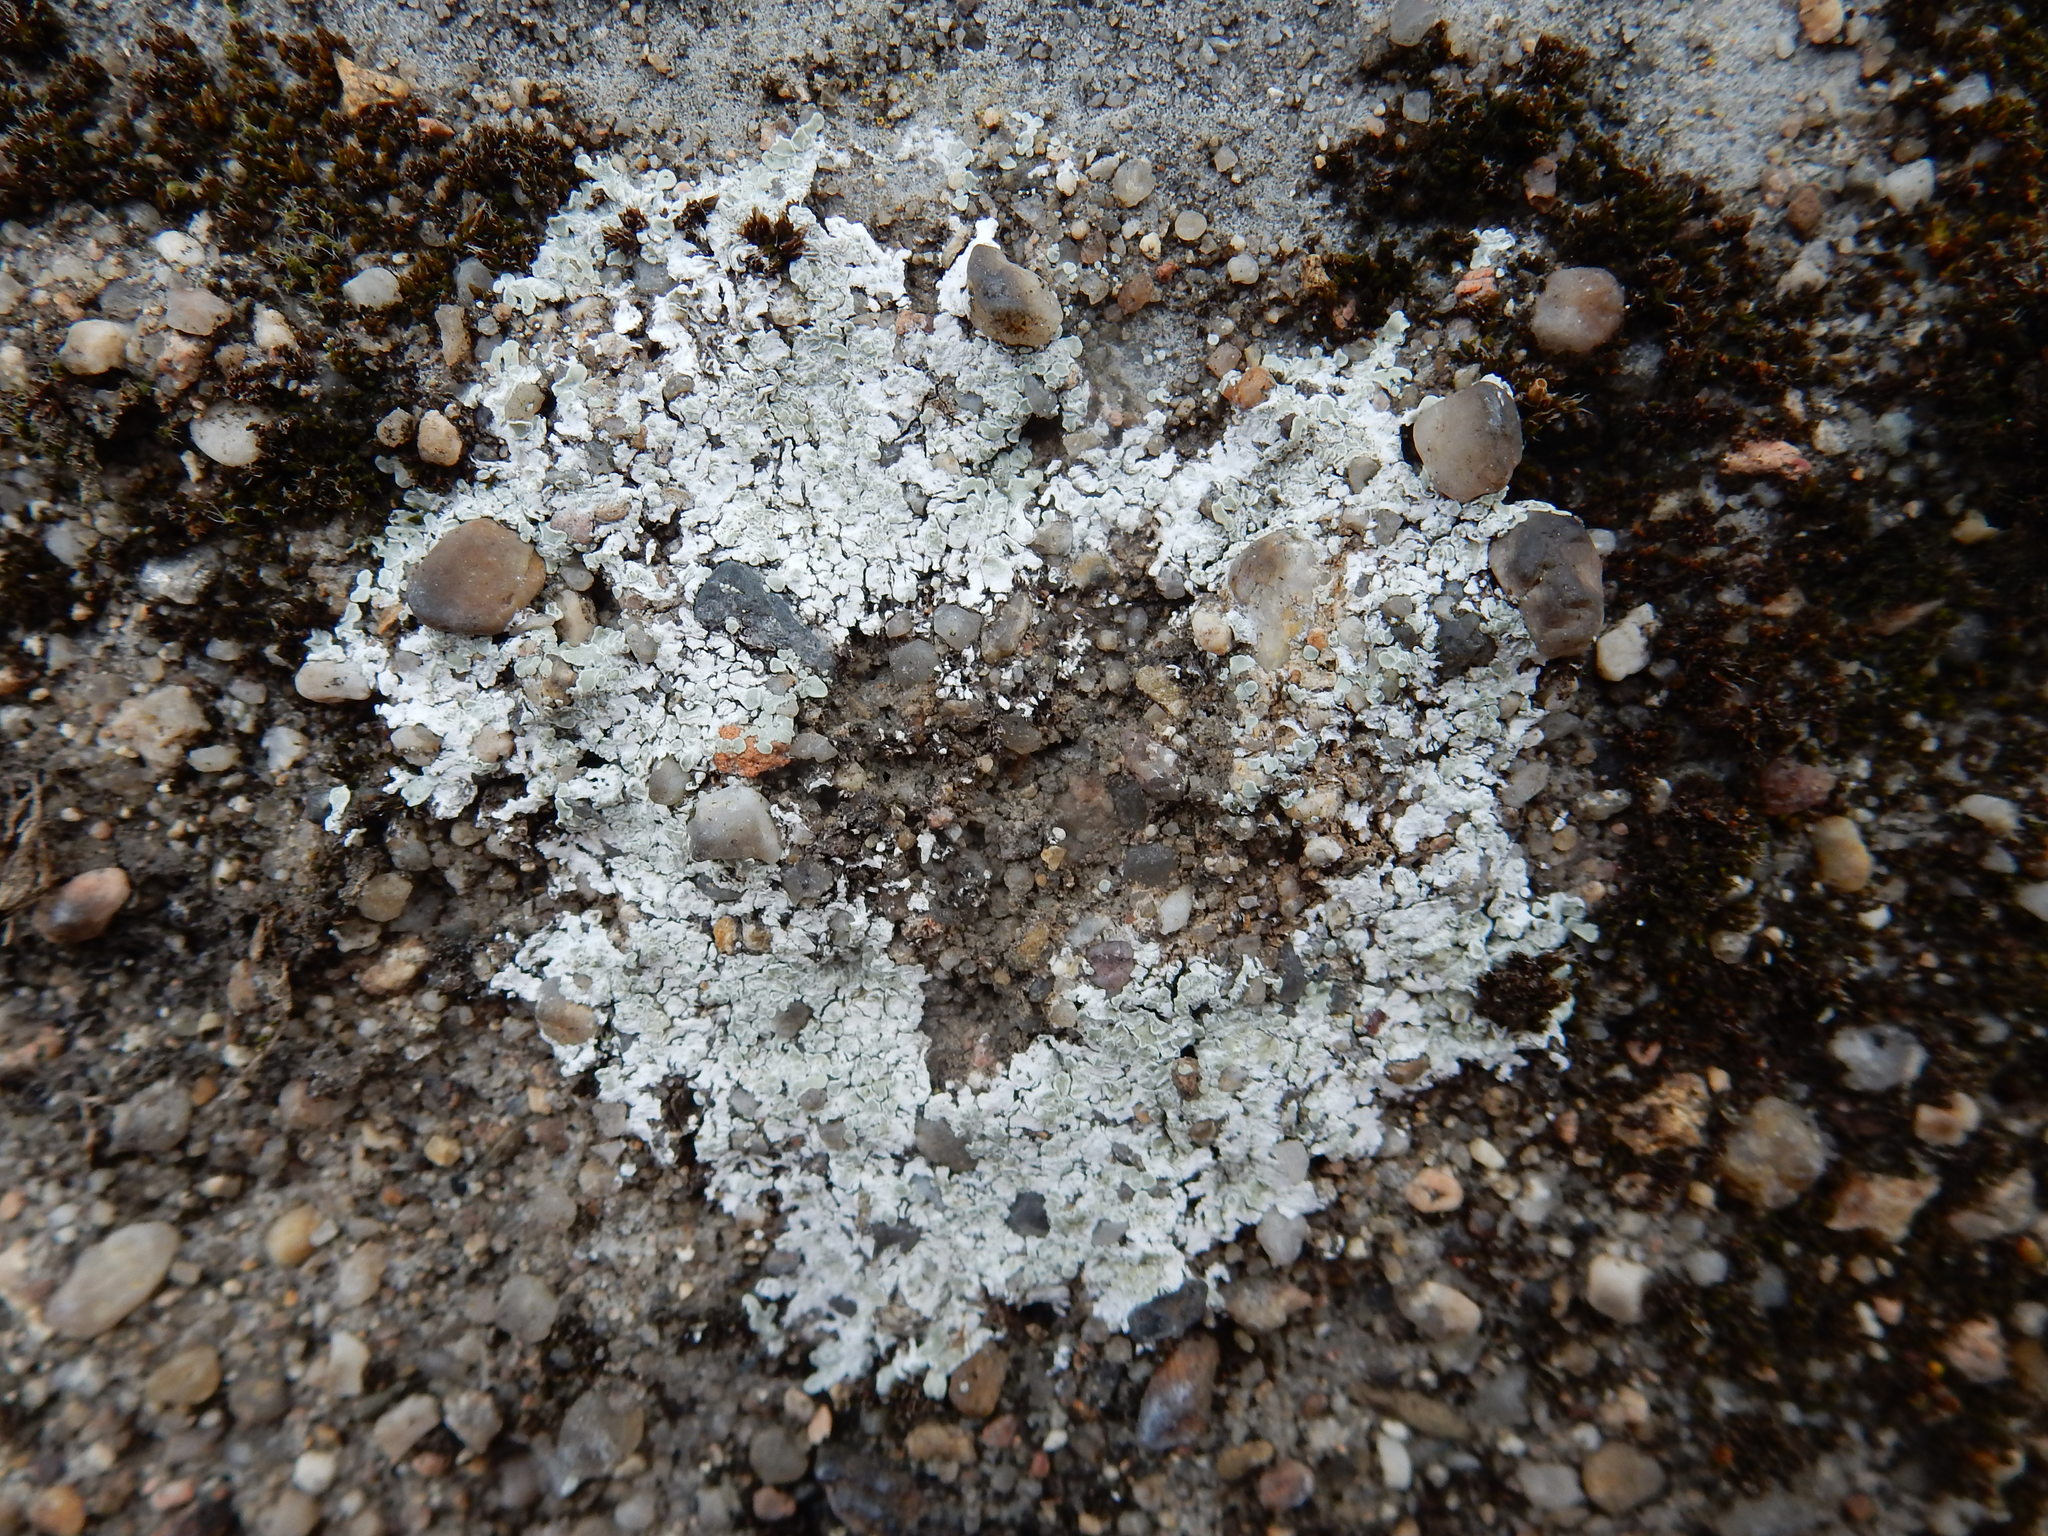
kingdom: Fungi
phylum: Ascomycota
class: Lecanoromycetes
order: Lecanorales
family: Lecanoraceae
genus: Protoparmeliopsis
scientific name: Protoparmeliopsis muralis
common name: Stonewall rim lichen
